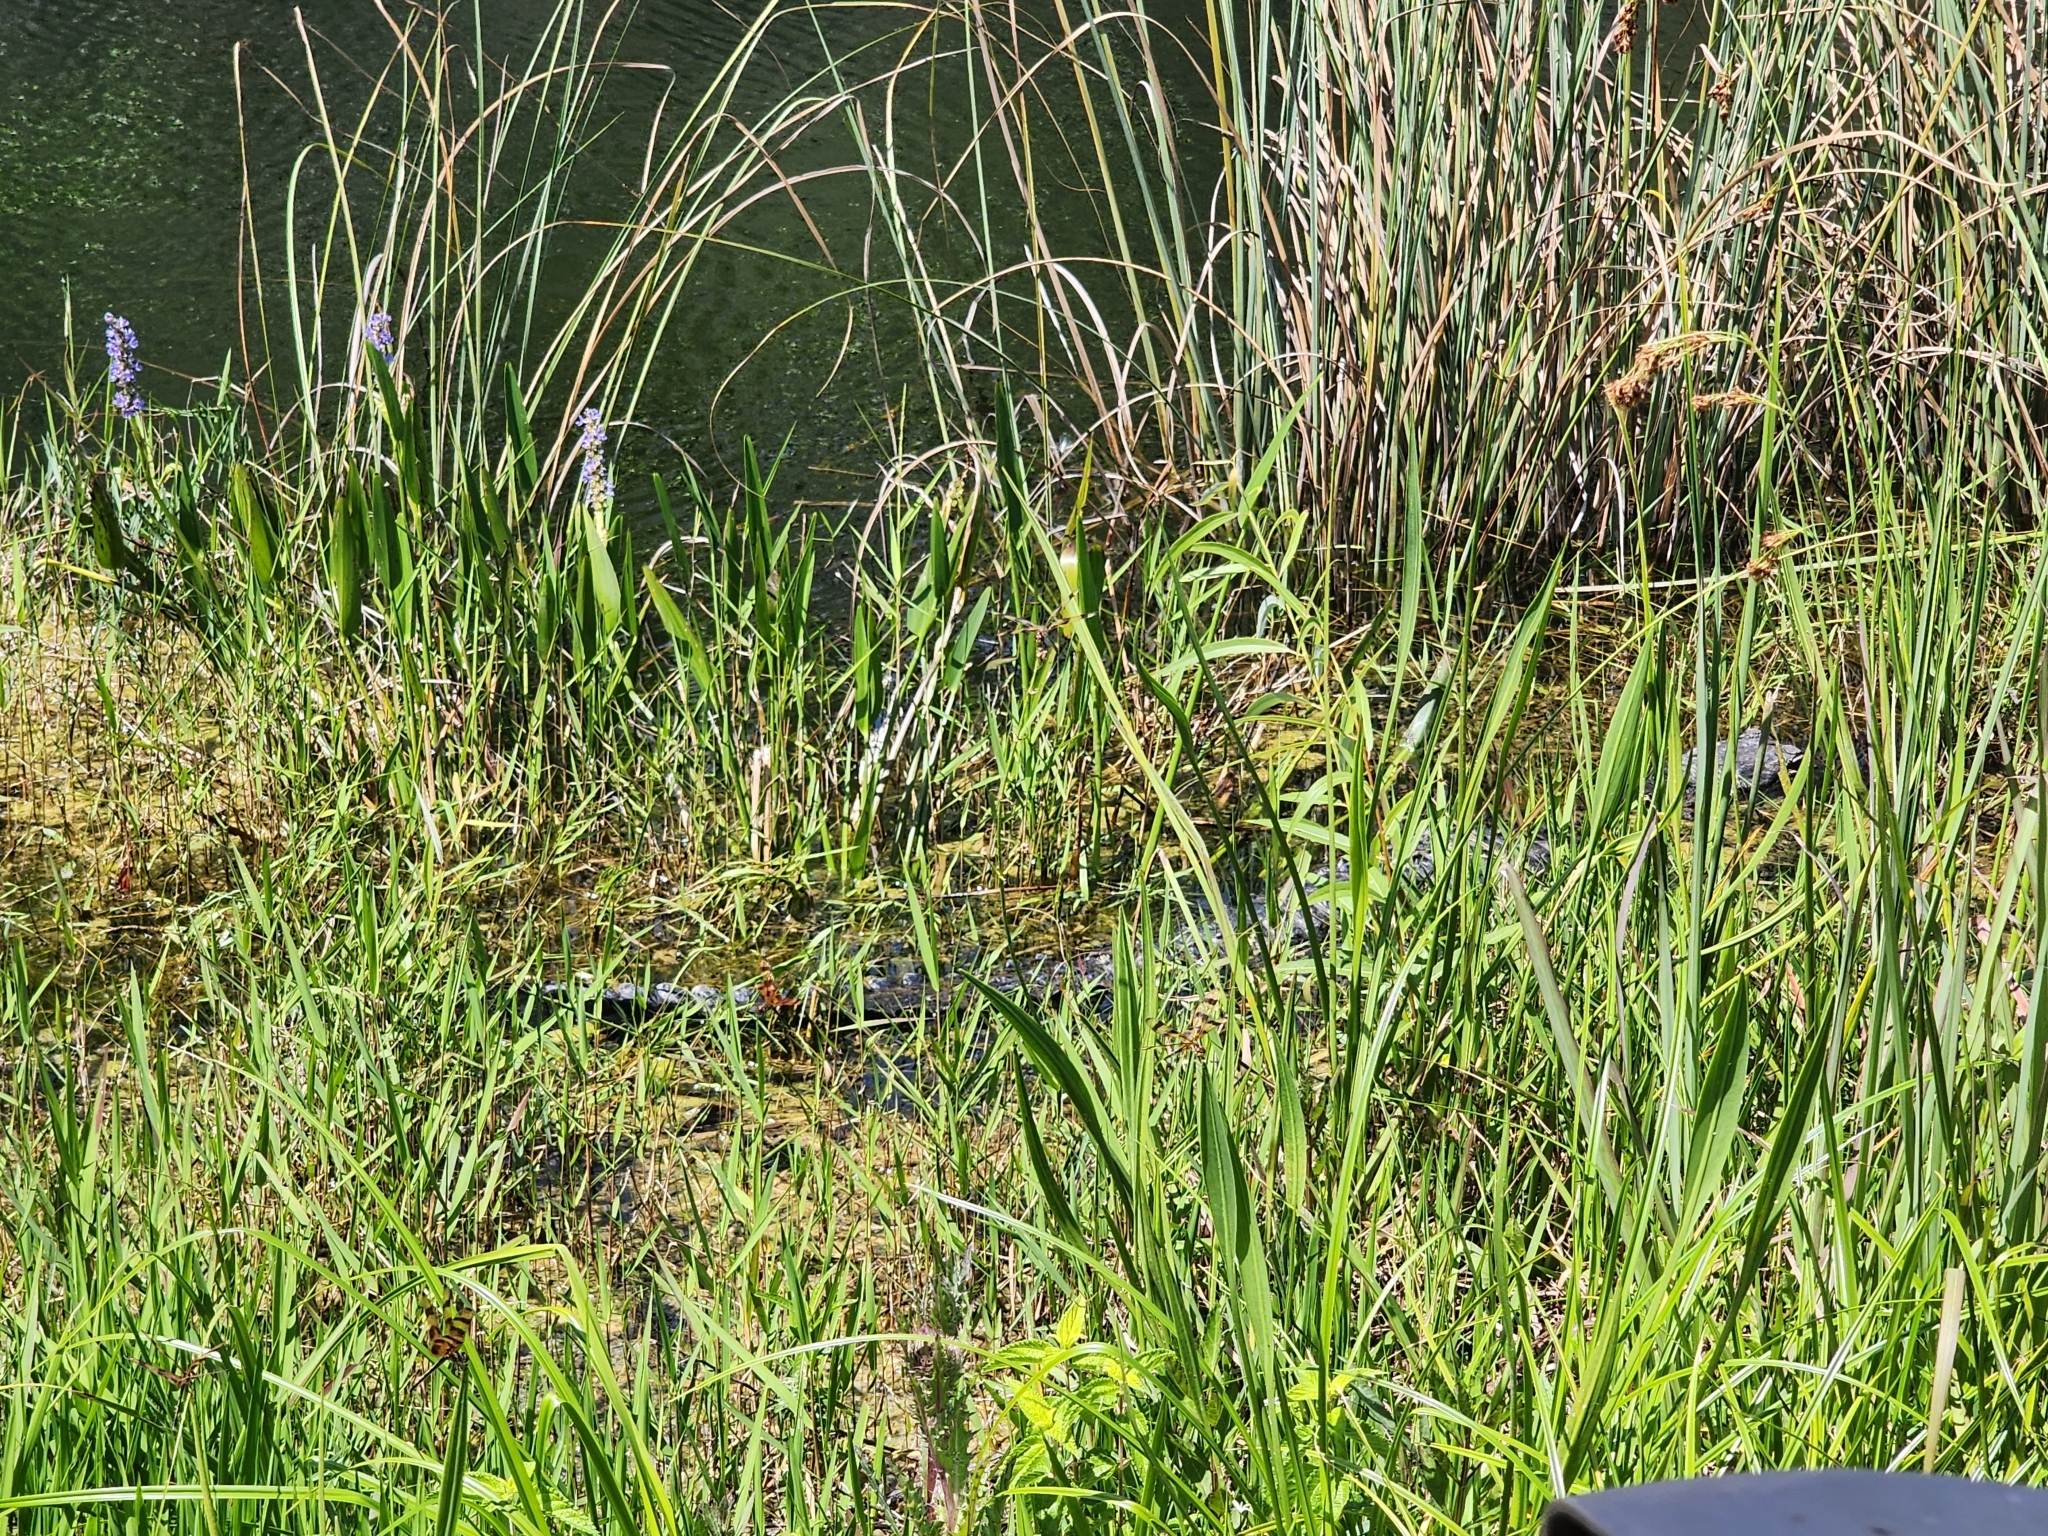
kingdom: Animalia
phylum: Chordata
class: Crocodylia
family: Alligatoridae
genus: Alligator
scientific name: Alligator mississippiensis
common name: American alligator
